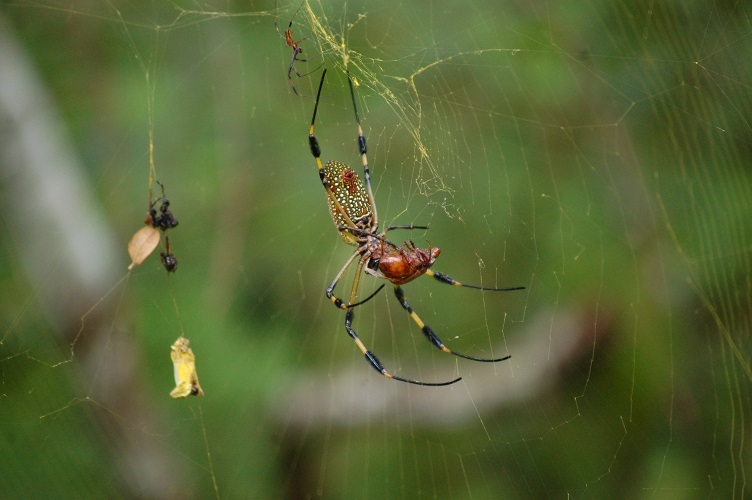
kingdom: Animalia
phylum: Arthropoda
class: Arachnida
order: Araneae
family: Araneidae
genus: Trichonephila
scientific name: Trichonephila clavipes
